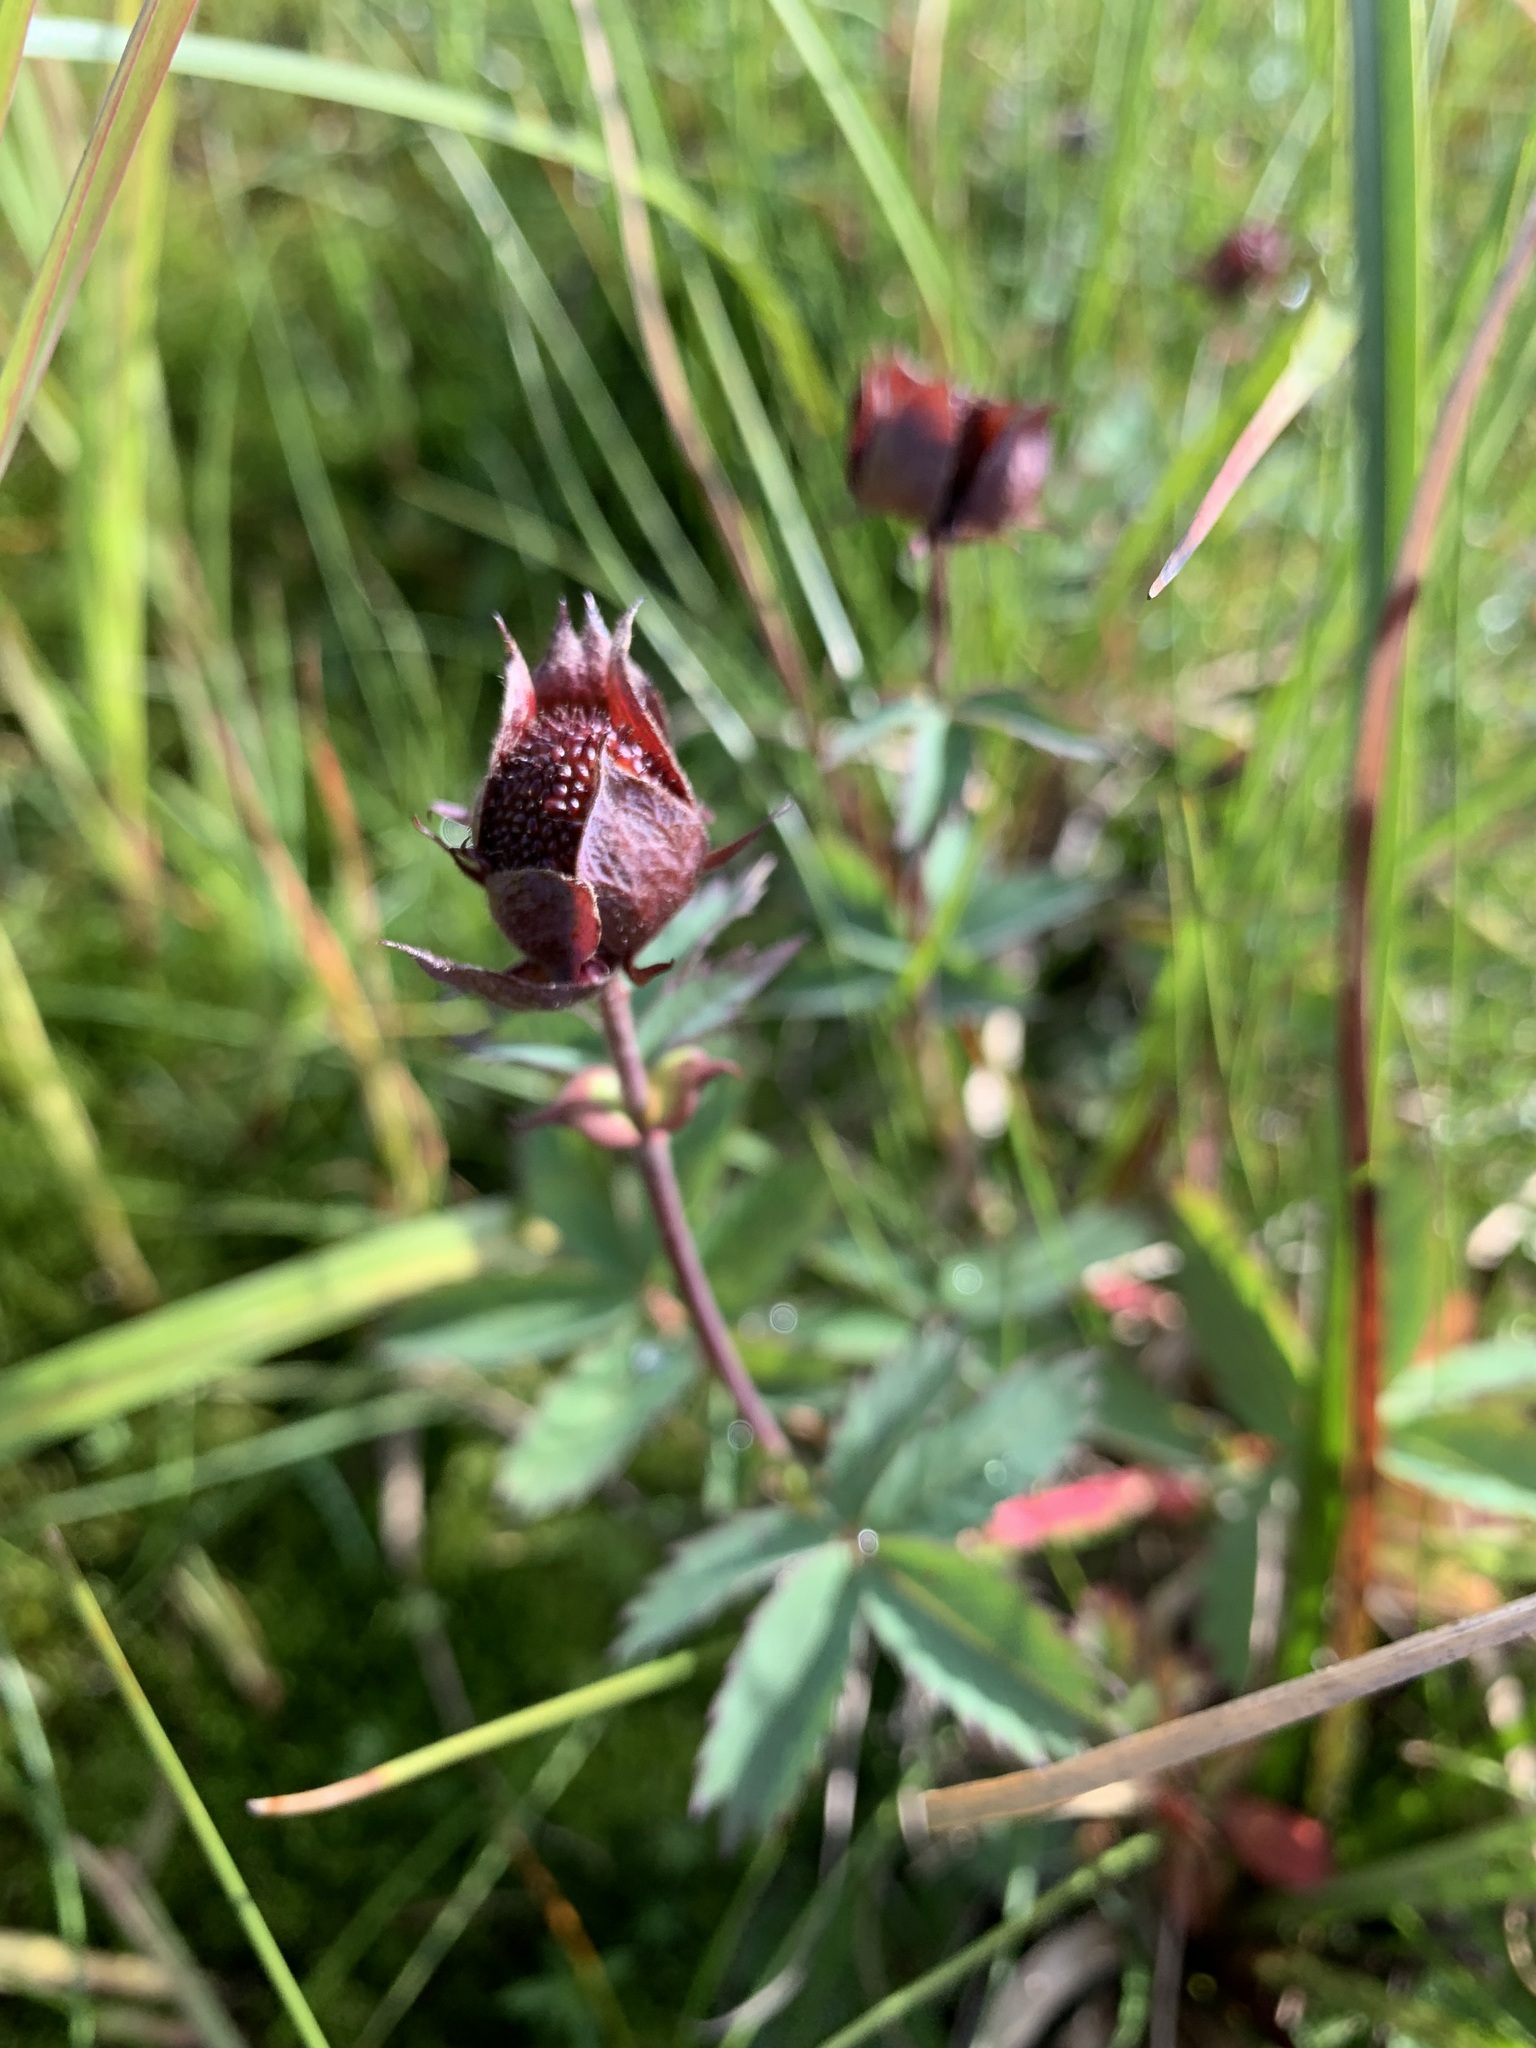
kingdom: Plantae
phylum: Tracheophyta
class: Magnoliopsida
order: Rosales
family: Rosaceae
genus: Comarum
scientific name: Comarum palustre
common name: Marsh cinquefoil
